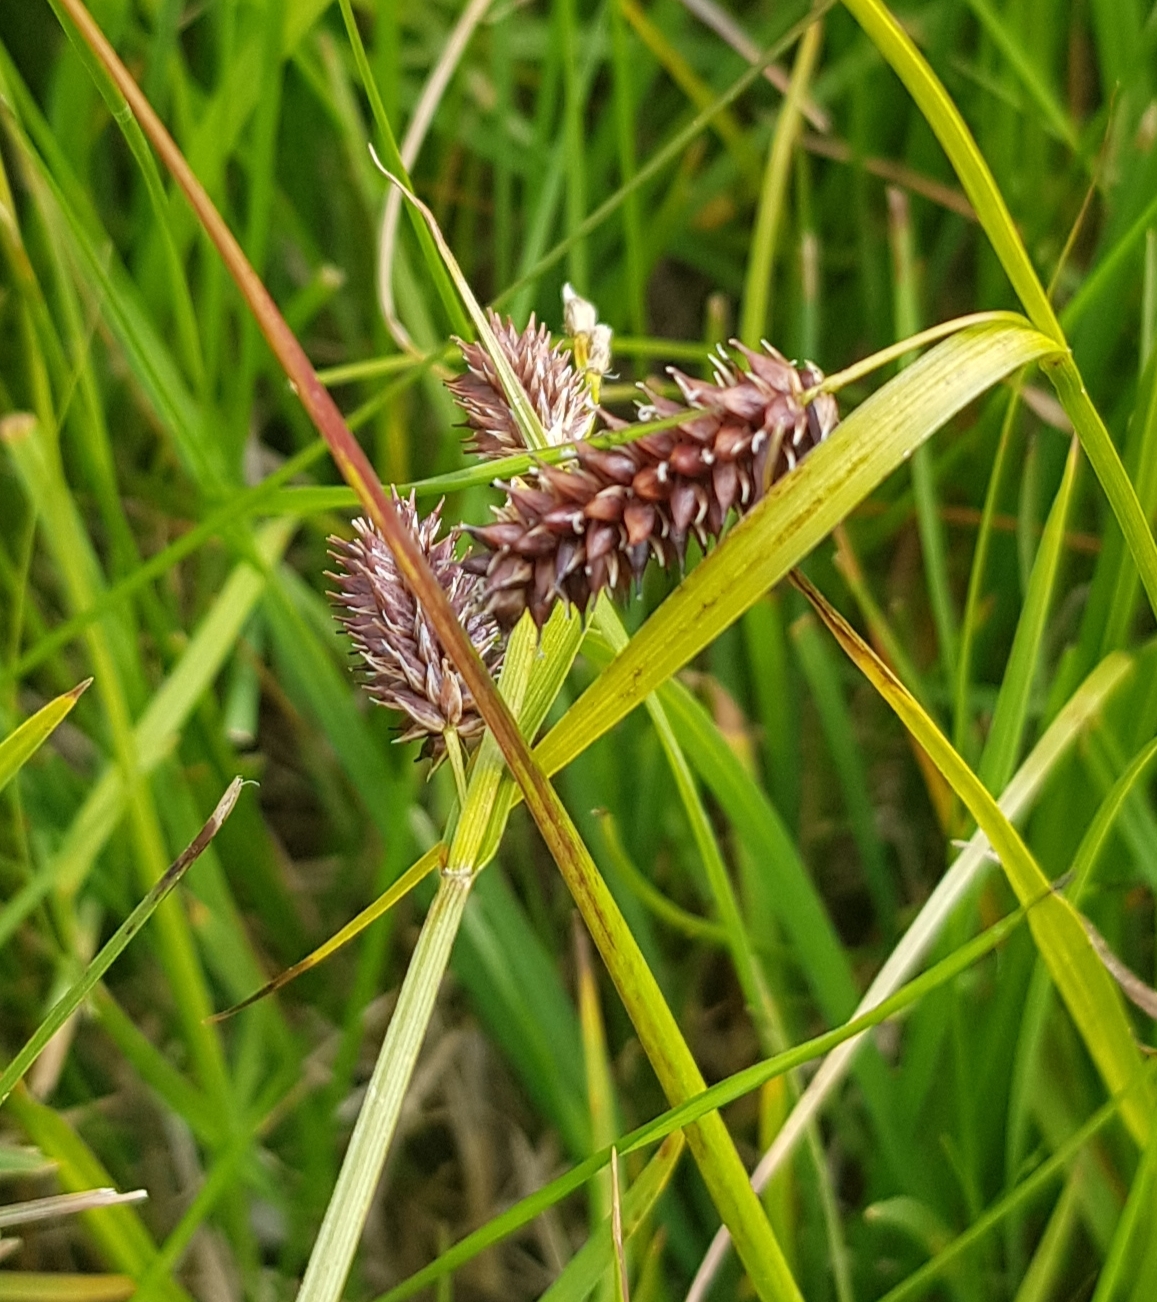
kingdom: Plantae
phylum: Tracheophyta
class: Liliopsida
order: Poales
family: Cyperaceae
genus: Carex
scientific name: Carex saxatilis
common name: Russet sedge
